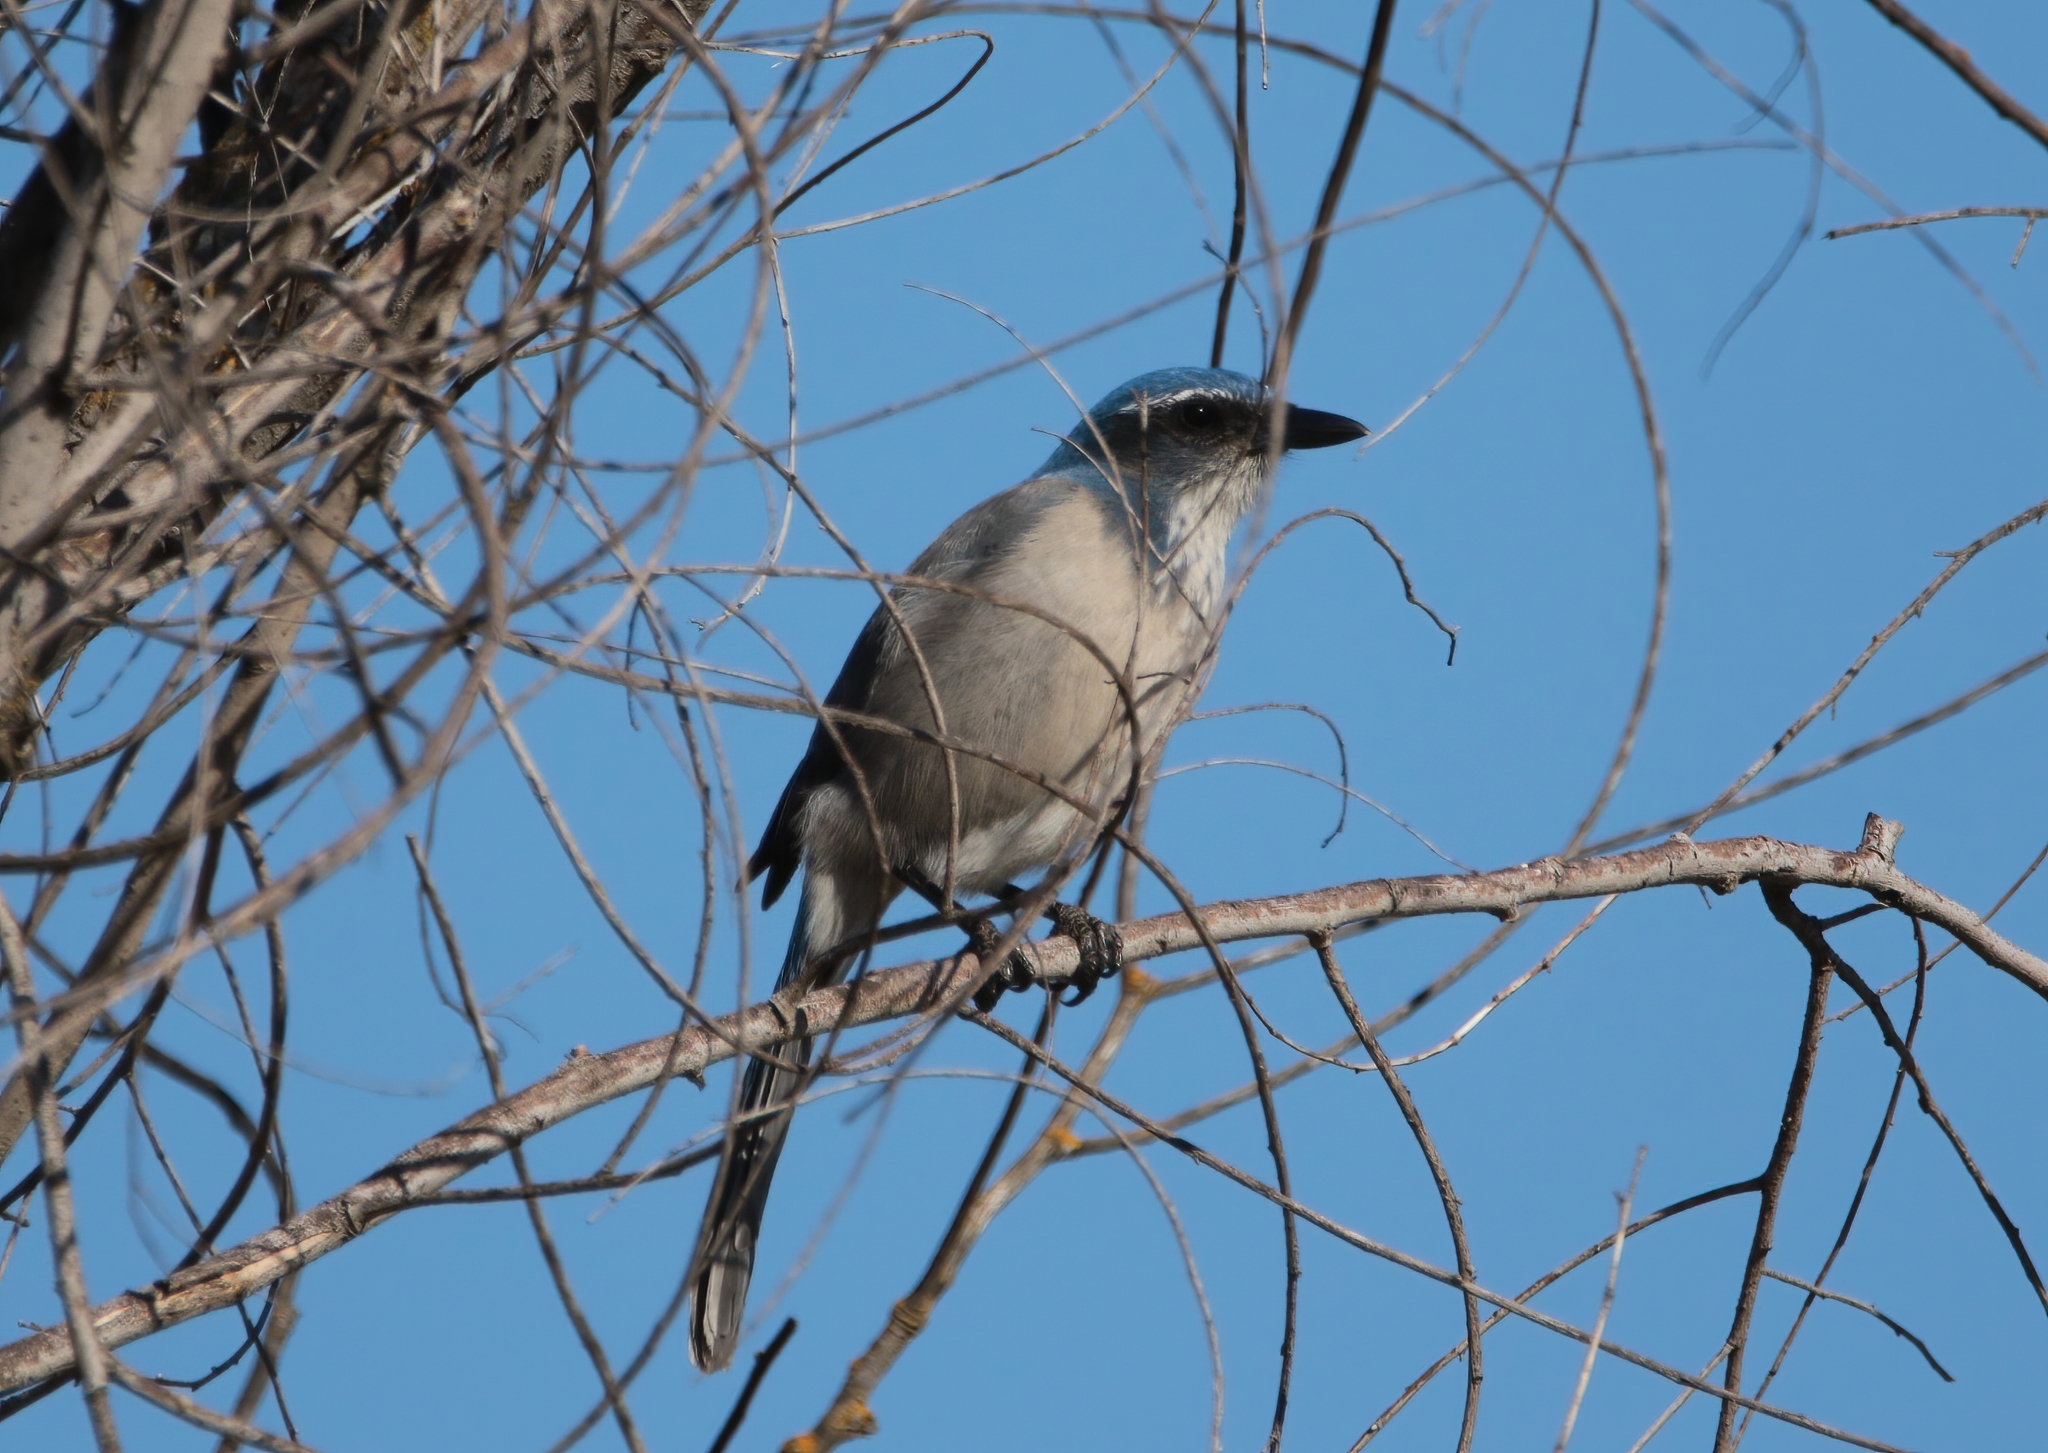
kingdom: Animalia
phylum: Chordata
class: Aves
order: Passeriformes
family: Corvidae
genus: Aphelocoma
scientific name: Aphelocoma californica
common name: California scrub-jay
